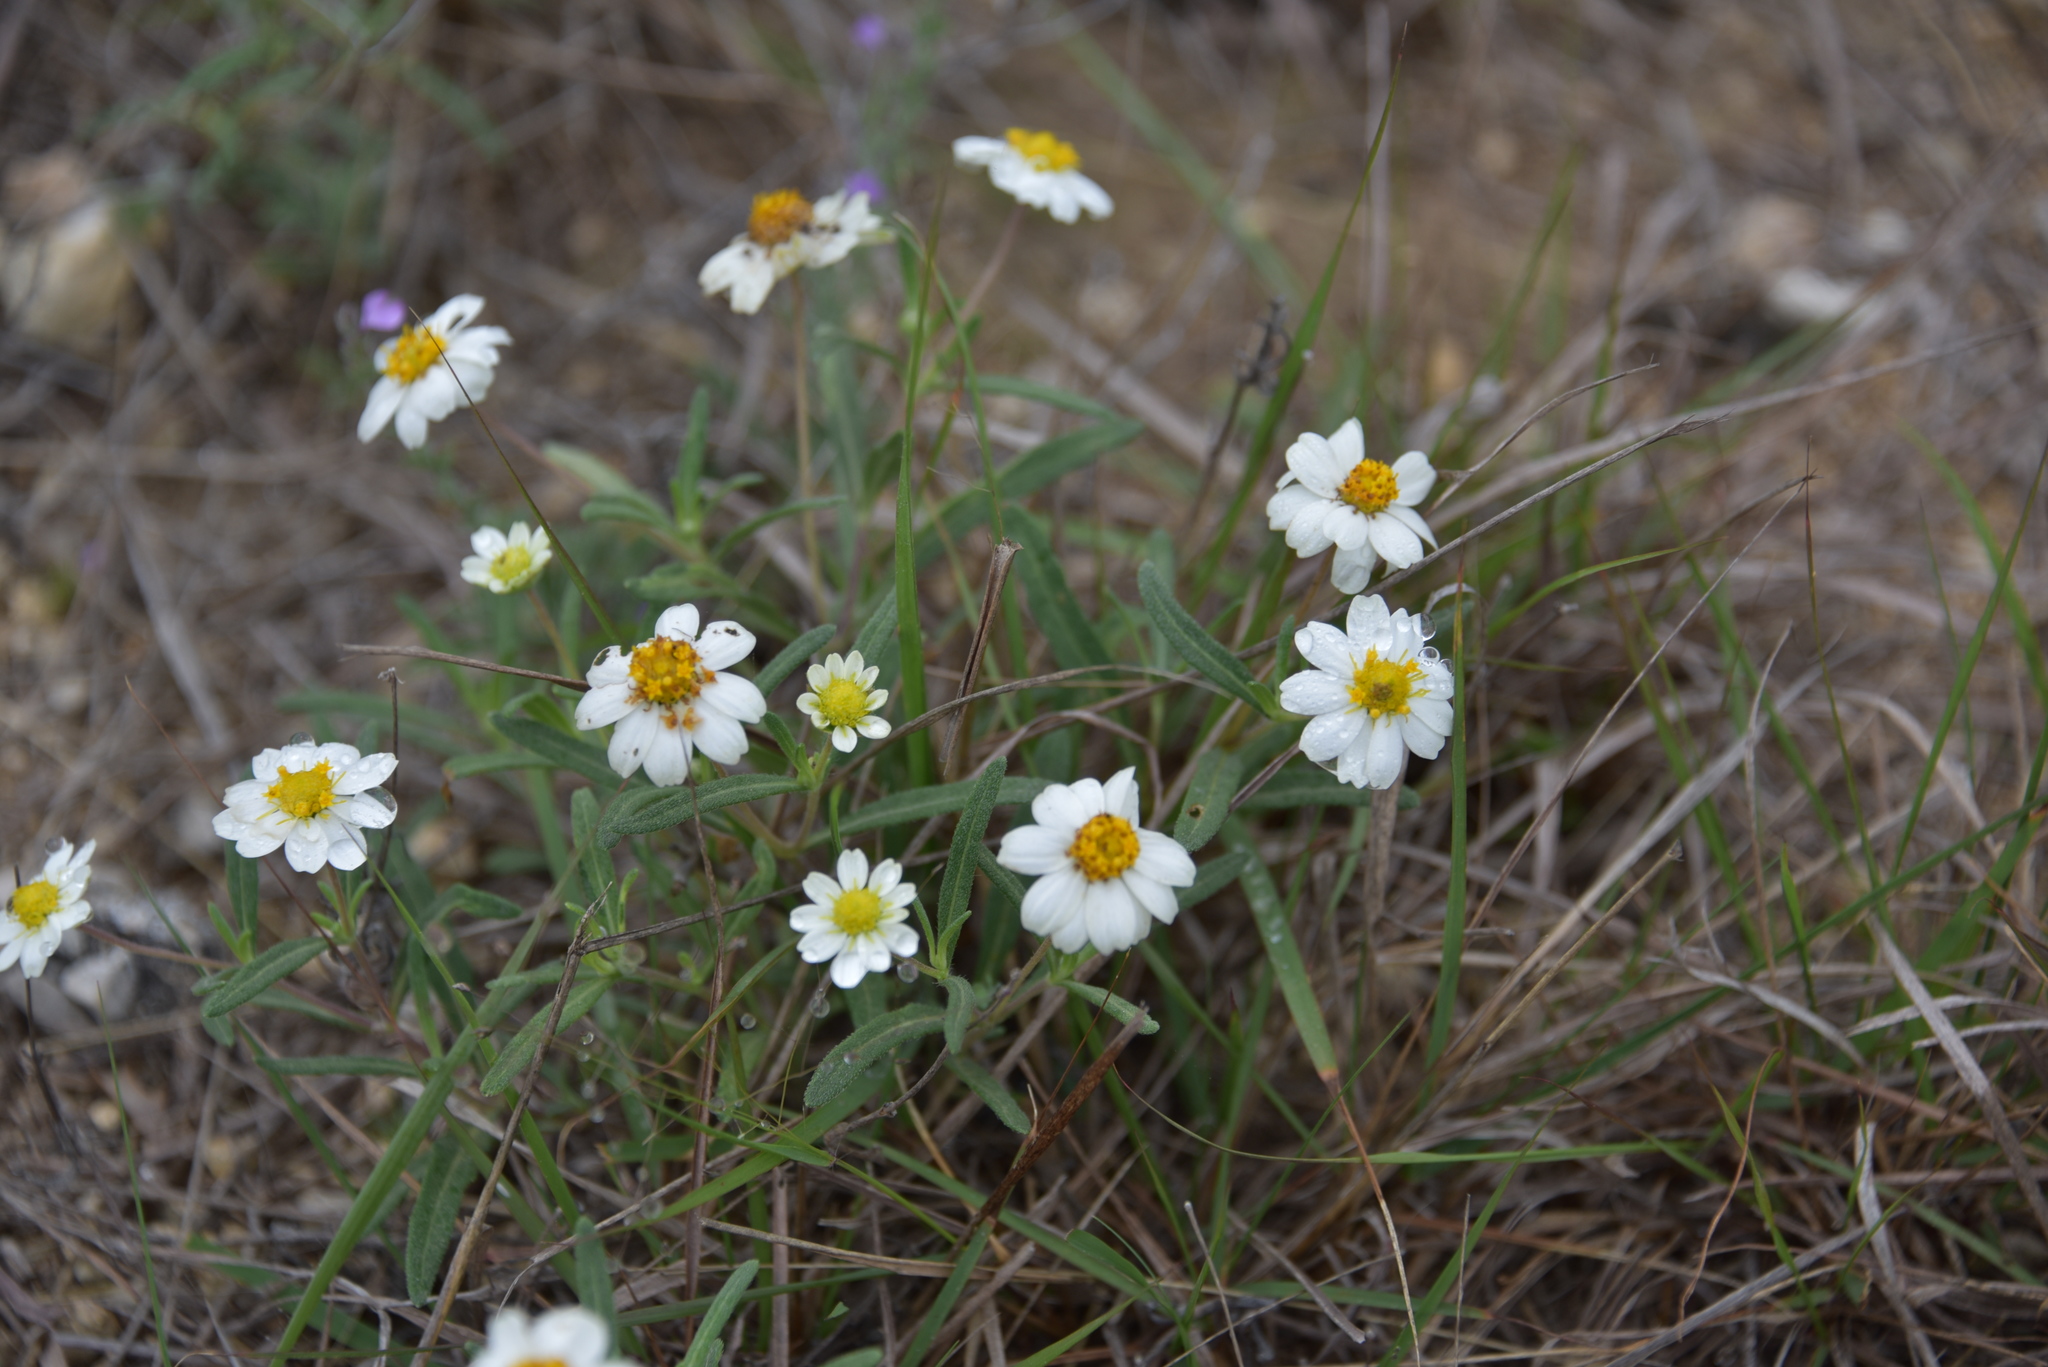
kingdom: Plantae
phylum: Tracheophyta
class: Magnoliopsida
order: Asterales
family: Asteraceae
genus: Melampodium
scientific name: Melampodium leucanthum
